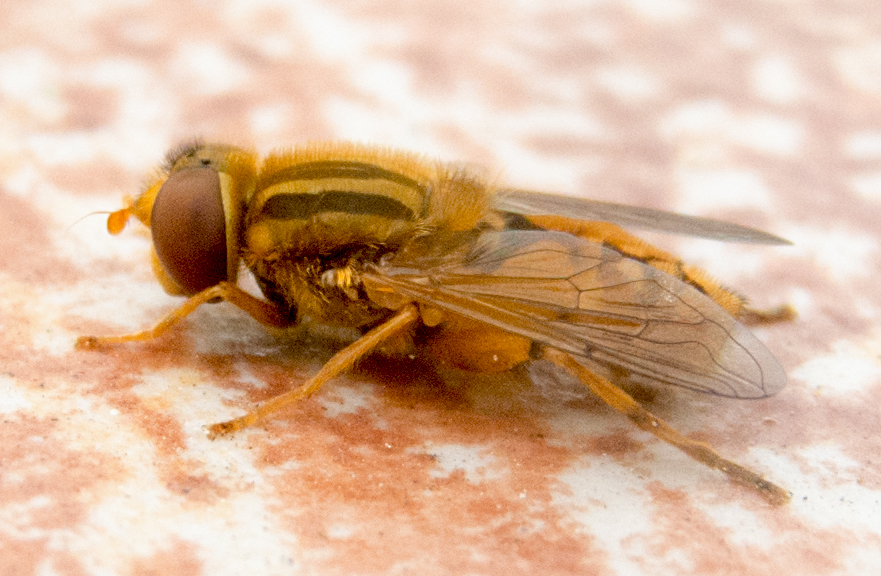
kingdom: Animalia
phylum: Arthropoda
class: Insecta
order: Diptera
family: Syrphidae
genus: Parhelophilus
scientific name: Parhelophilus versicolor
